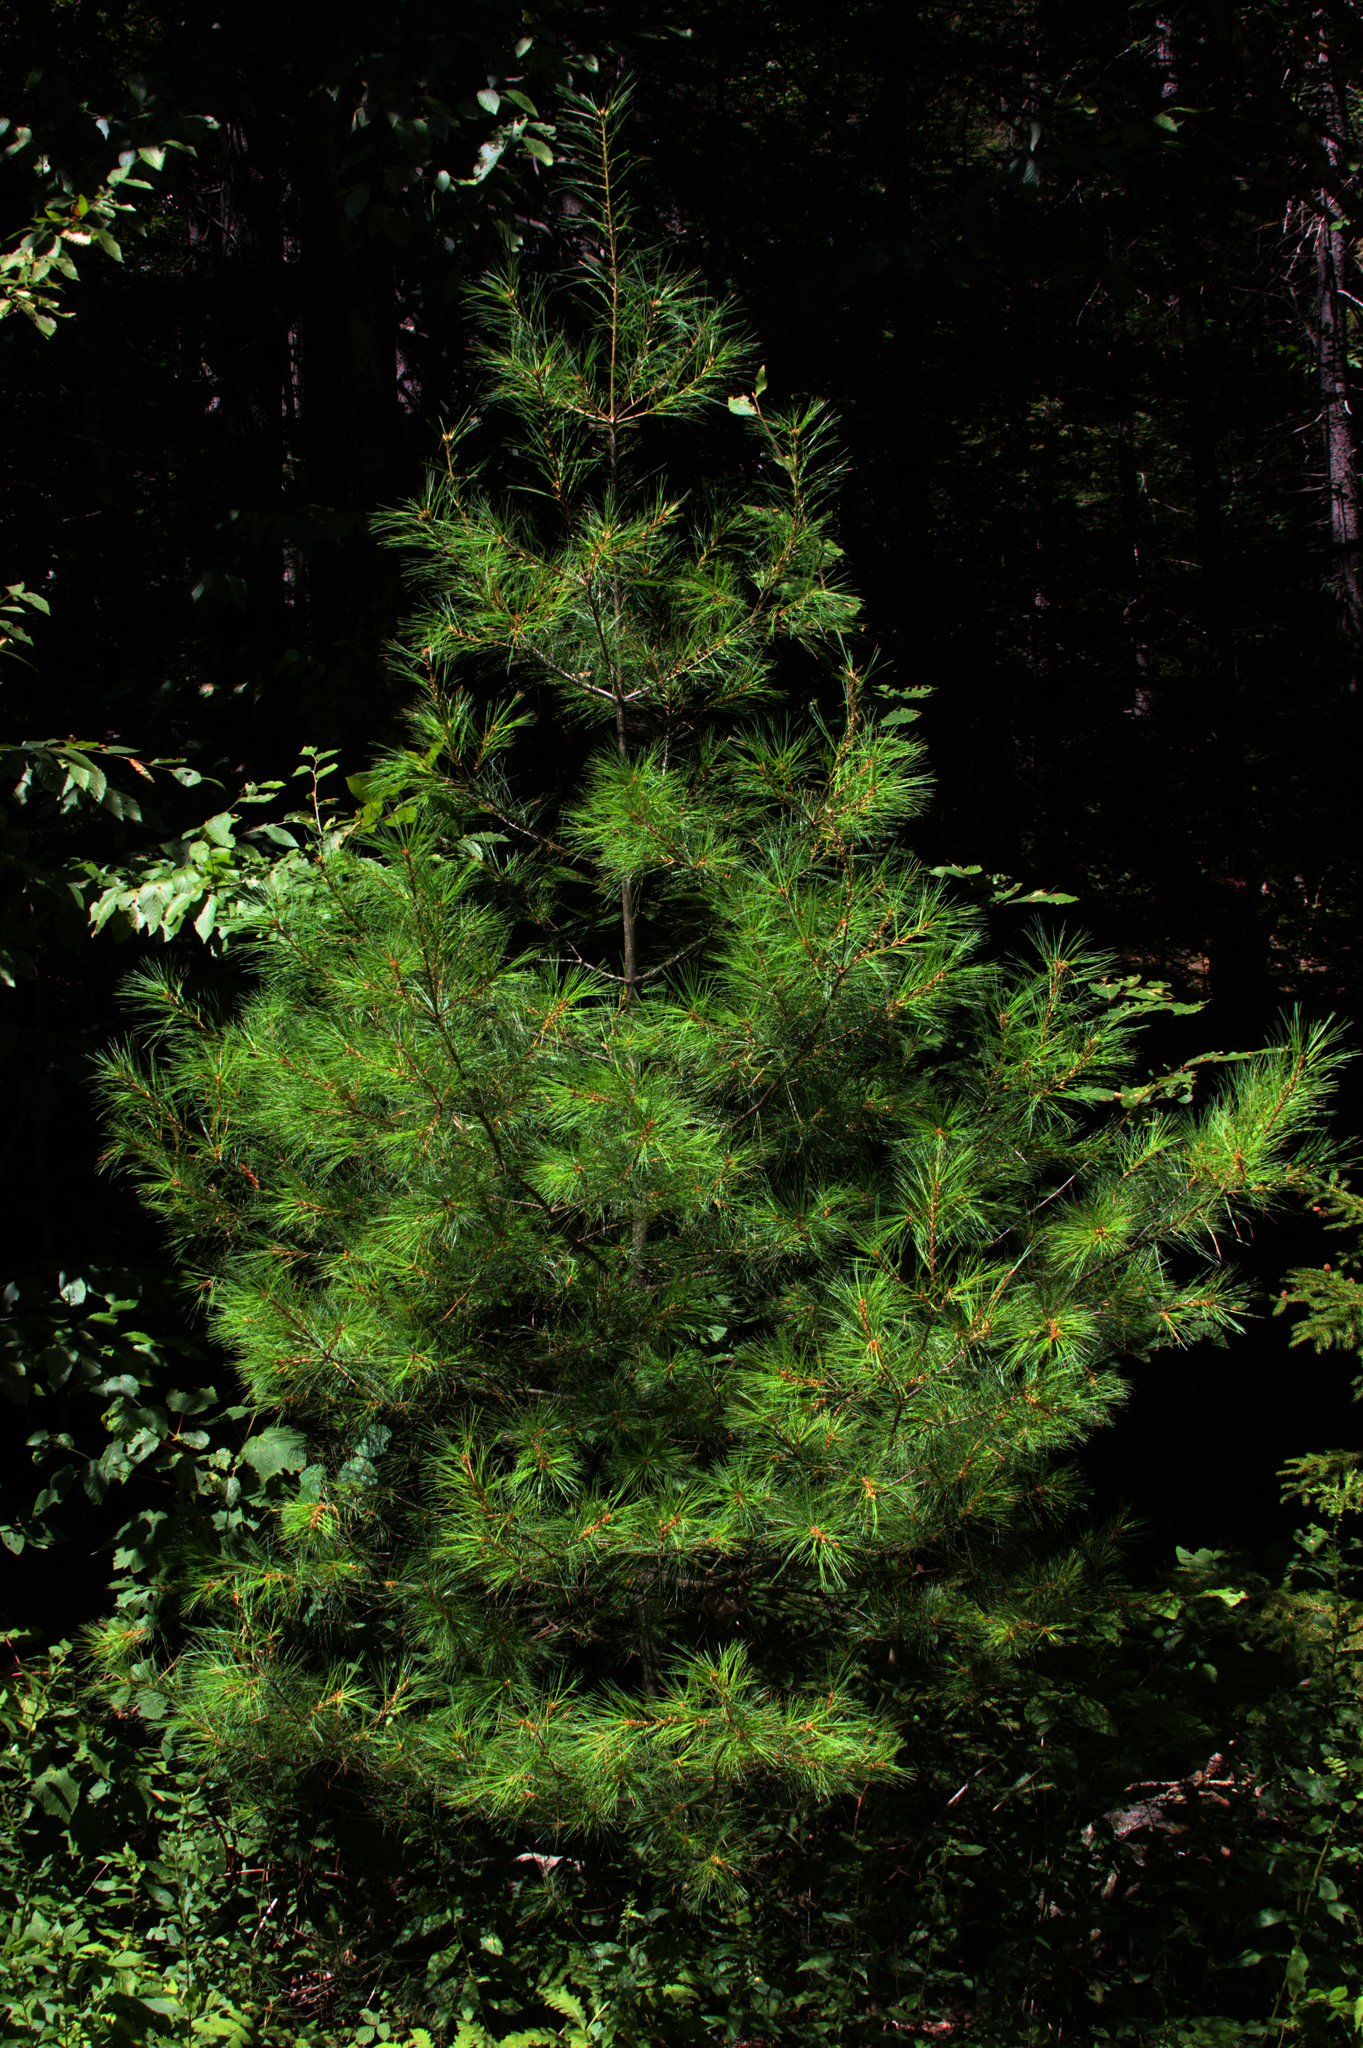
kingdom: Plantae
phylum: Tracheophyta
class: Pinopsida
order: Pinales
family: Pinaceae
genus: Pinus
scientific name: Pinus strobus
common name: Weymouth pine
